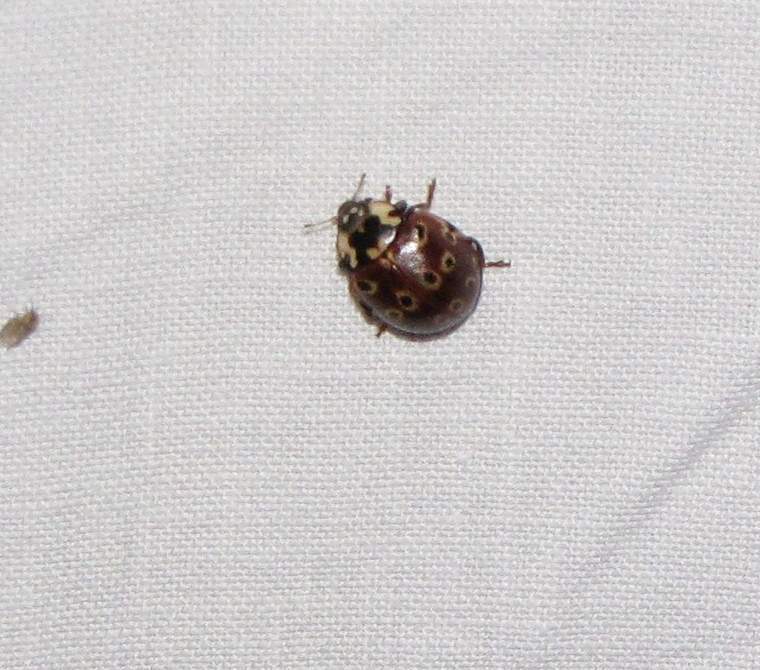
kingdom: Animalia
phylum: Arthropoda
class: Insecta
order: Coleoptera
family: Coccinellidae
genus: Anatis
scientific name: Anatis mali
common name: Eye-spotted lady beetle
